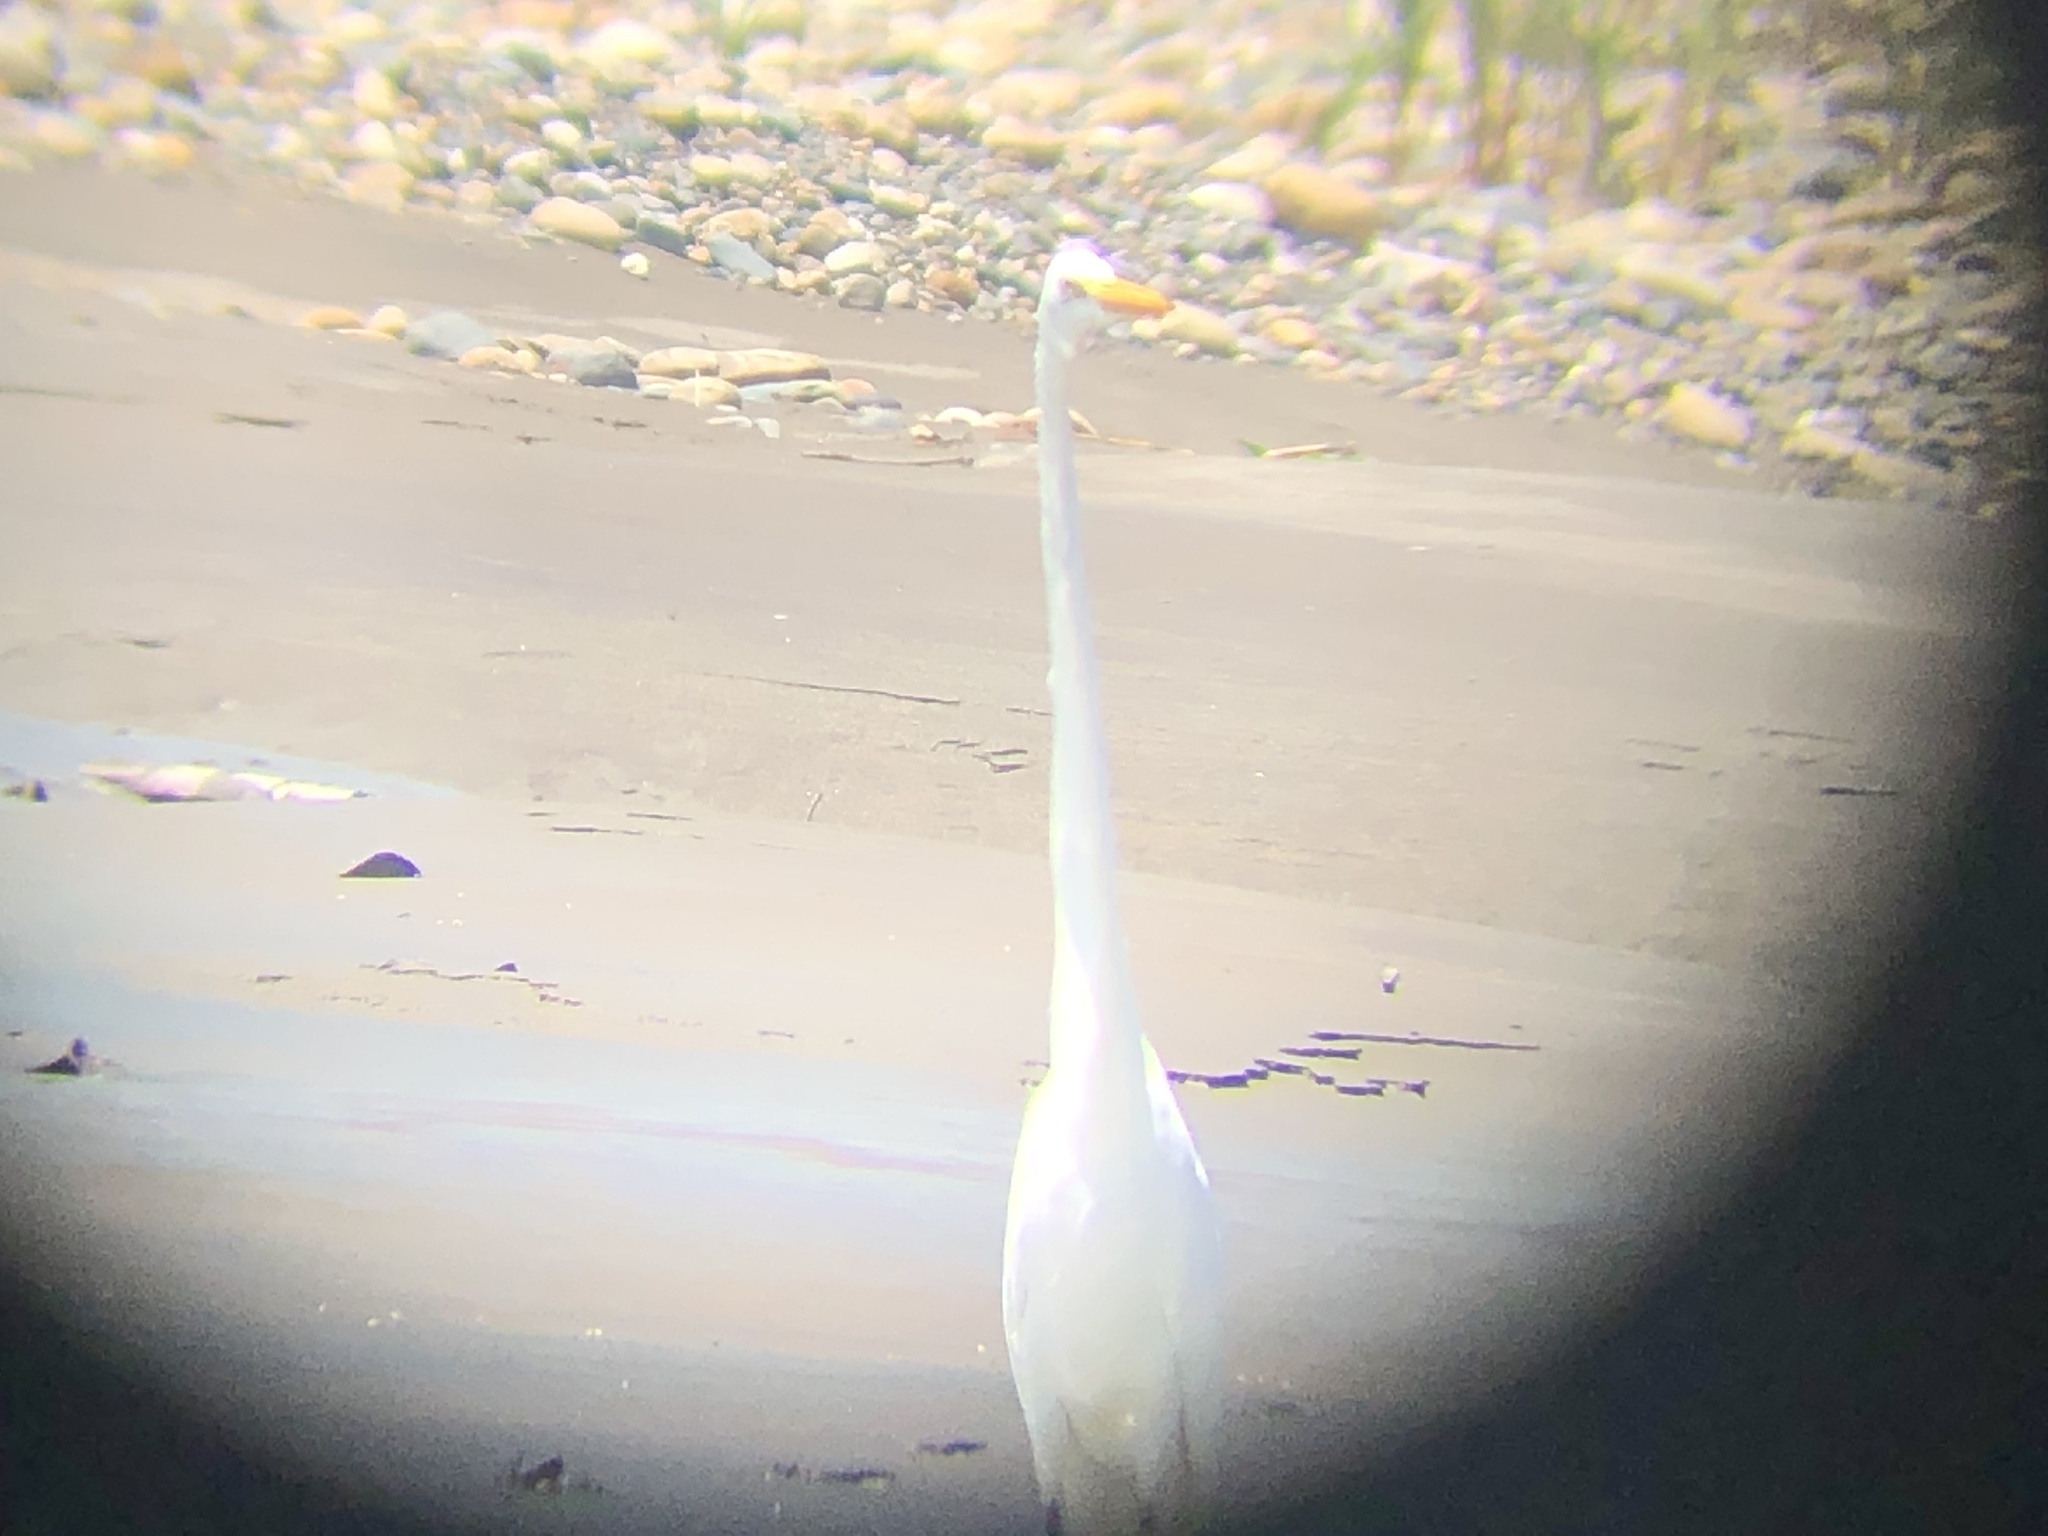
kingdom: Animalia
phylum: Chordata
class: Aves
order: Pelecaniformes
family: Ardeidae
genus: Ardea
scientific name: Ardea alba
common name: Great egret
